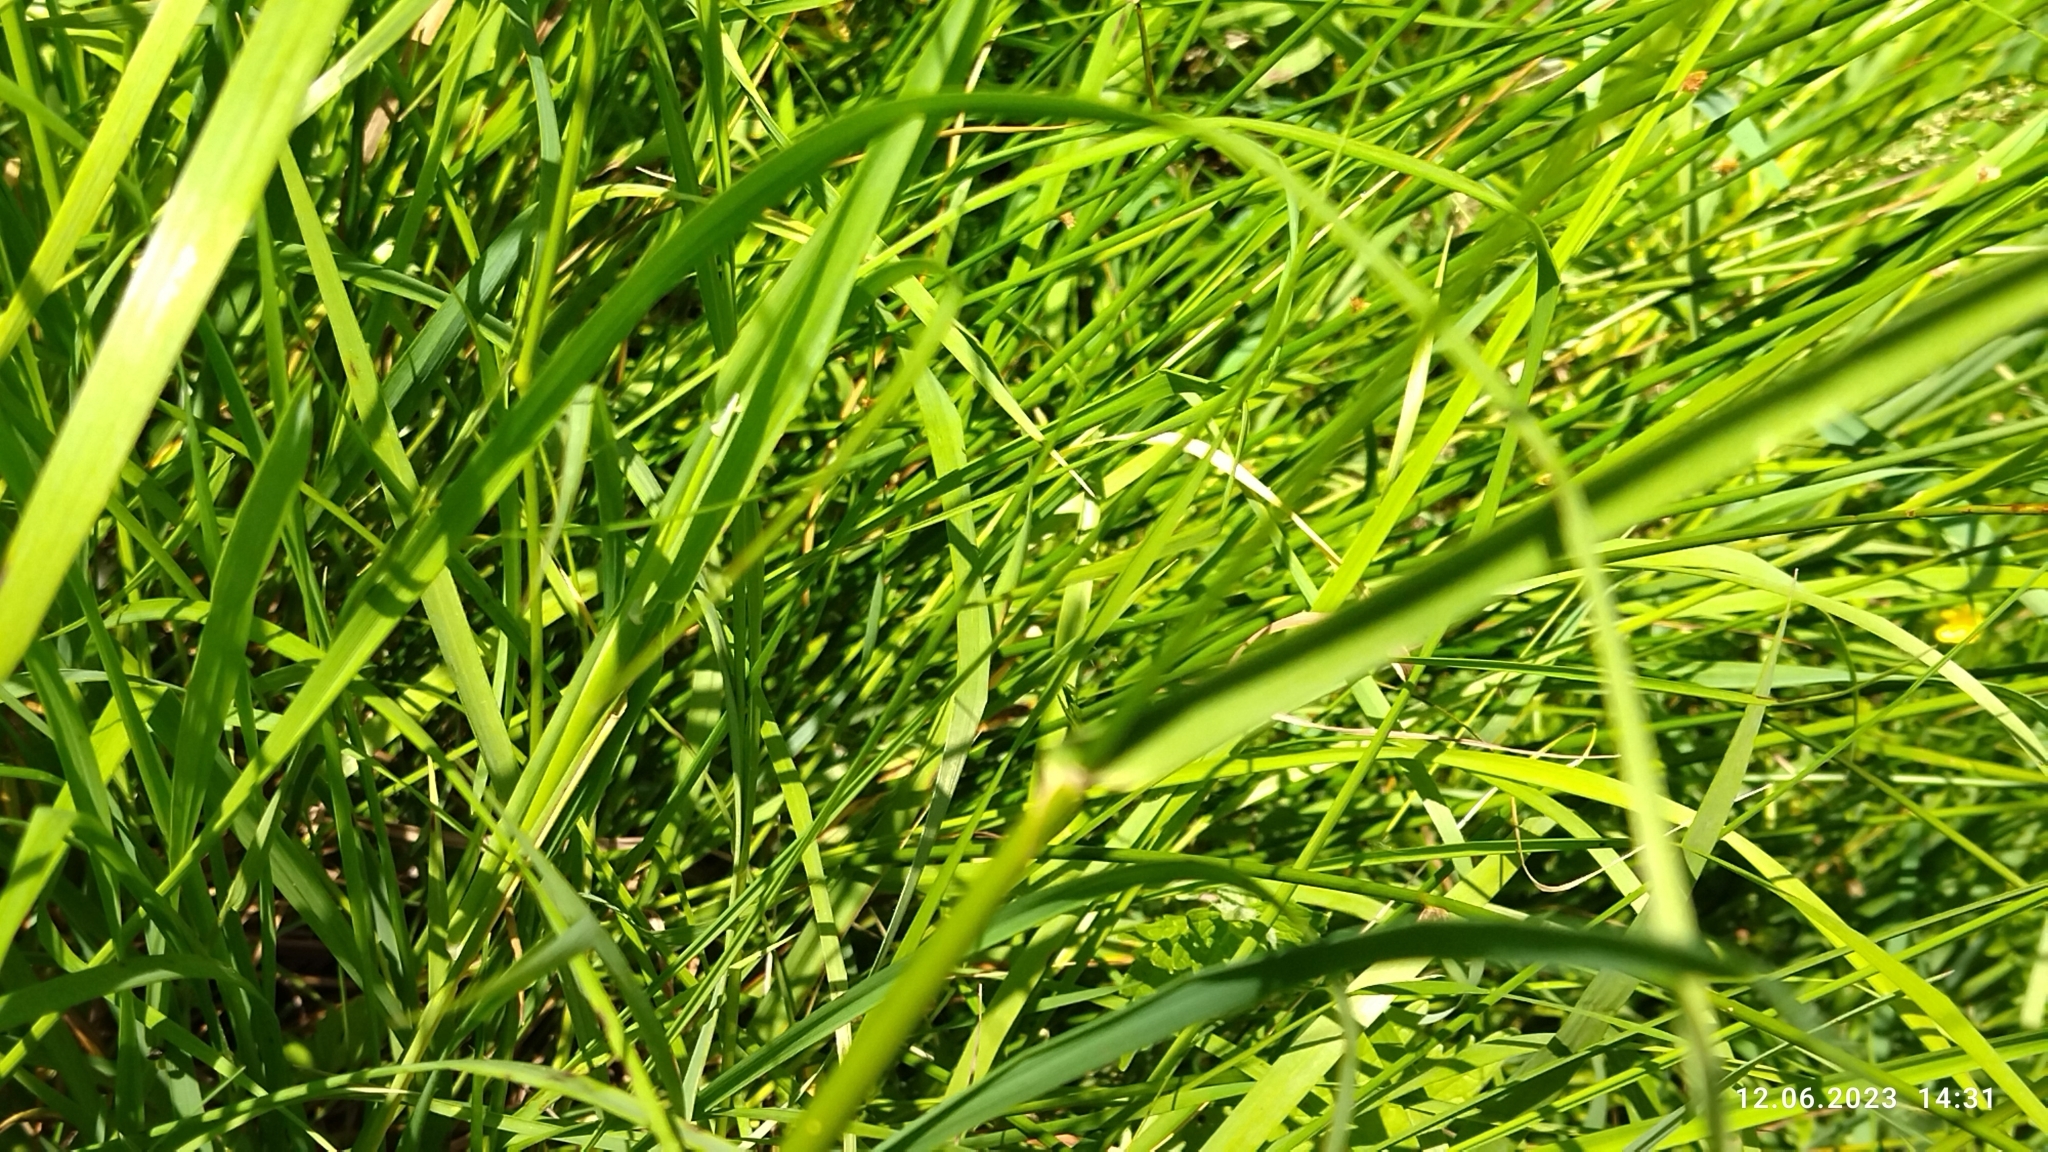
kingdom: Plantae
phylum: Tracheophyta
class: Liliopsida
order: Poales
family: Poaceae
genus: Alopecurus
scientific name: Alopecurus pratensis
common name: Meadow foxtail
